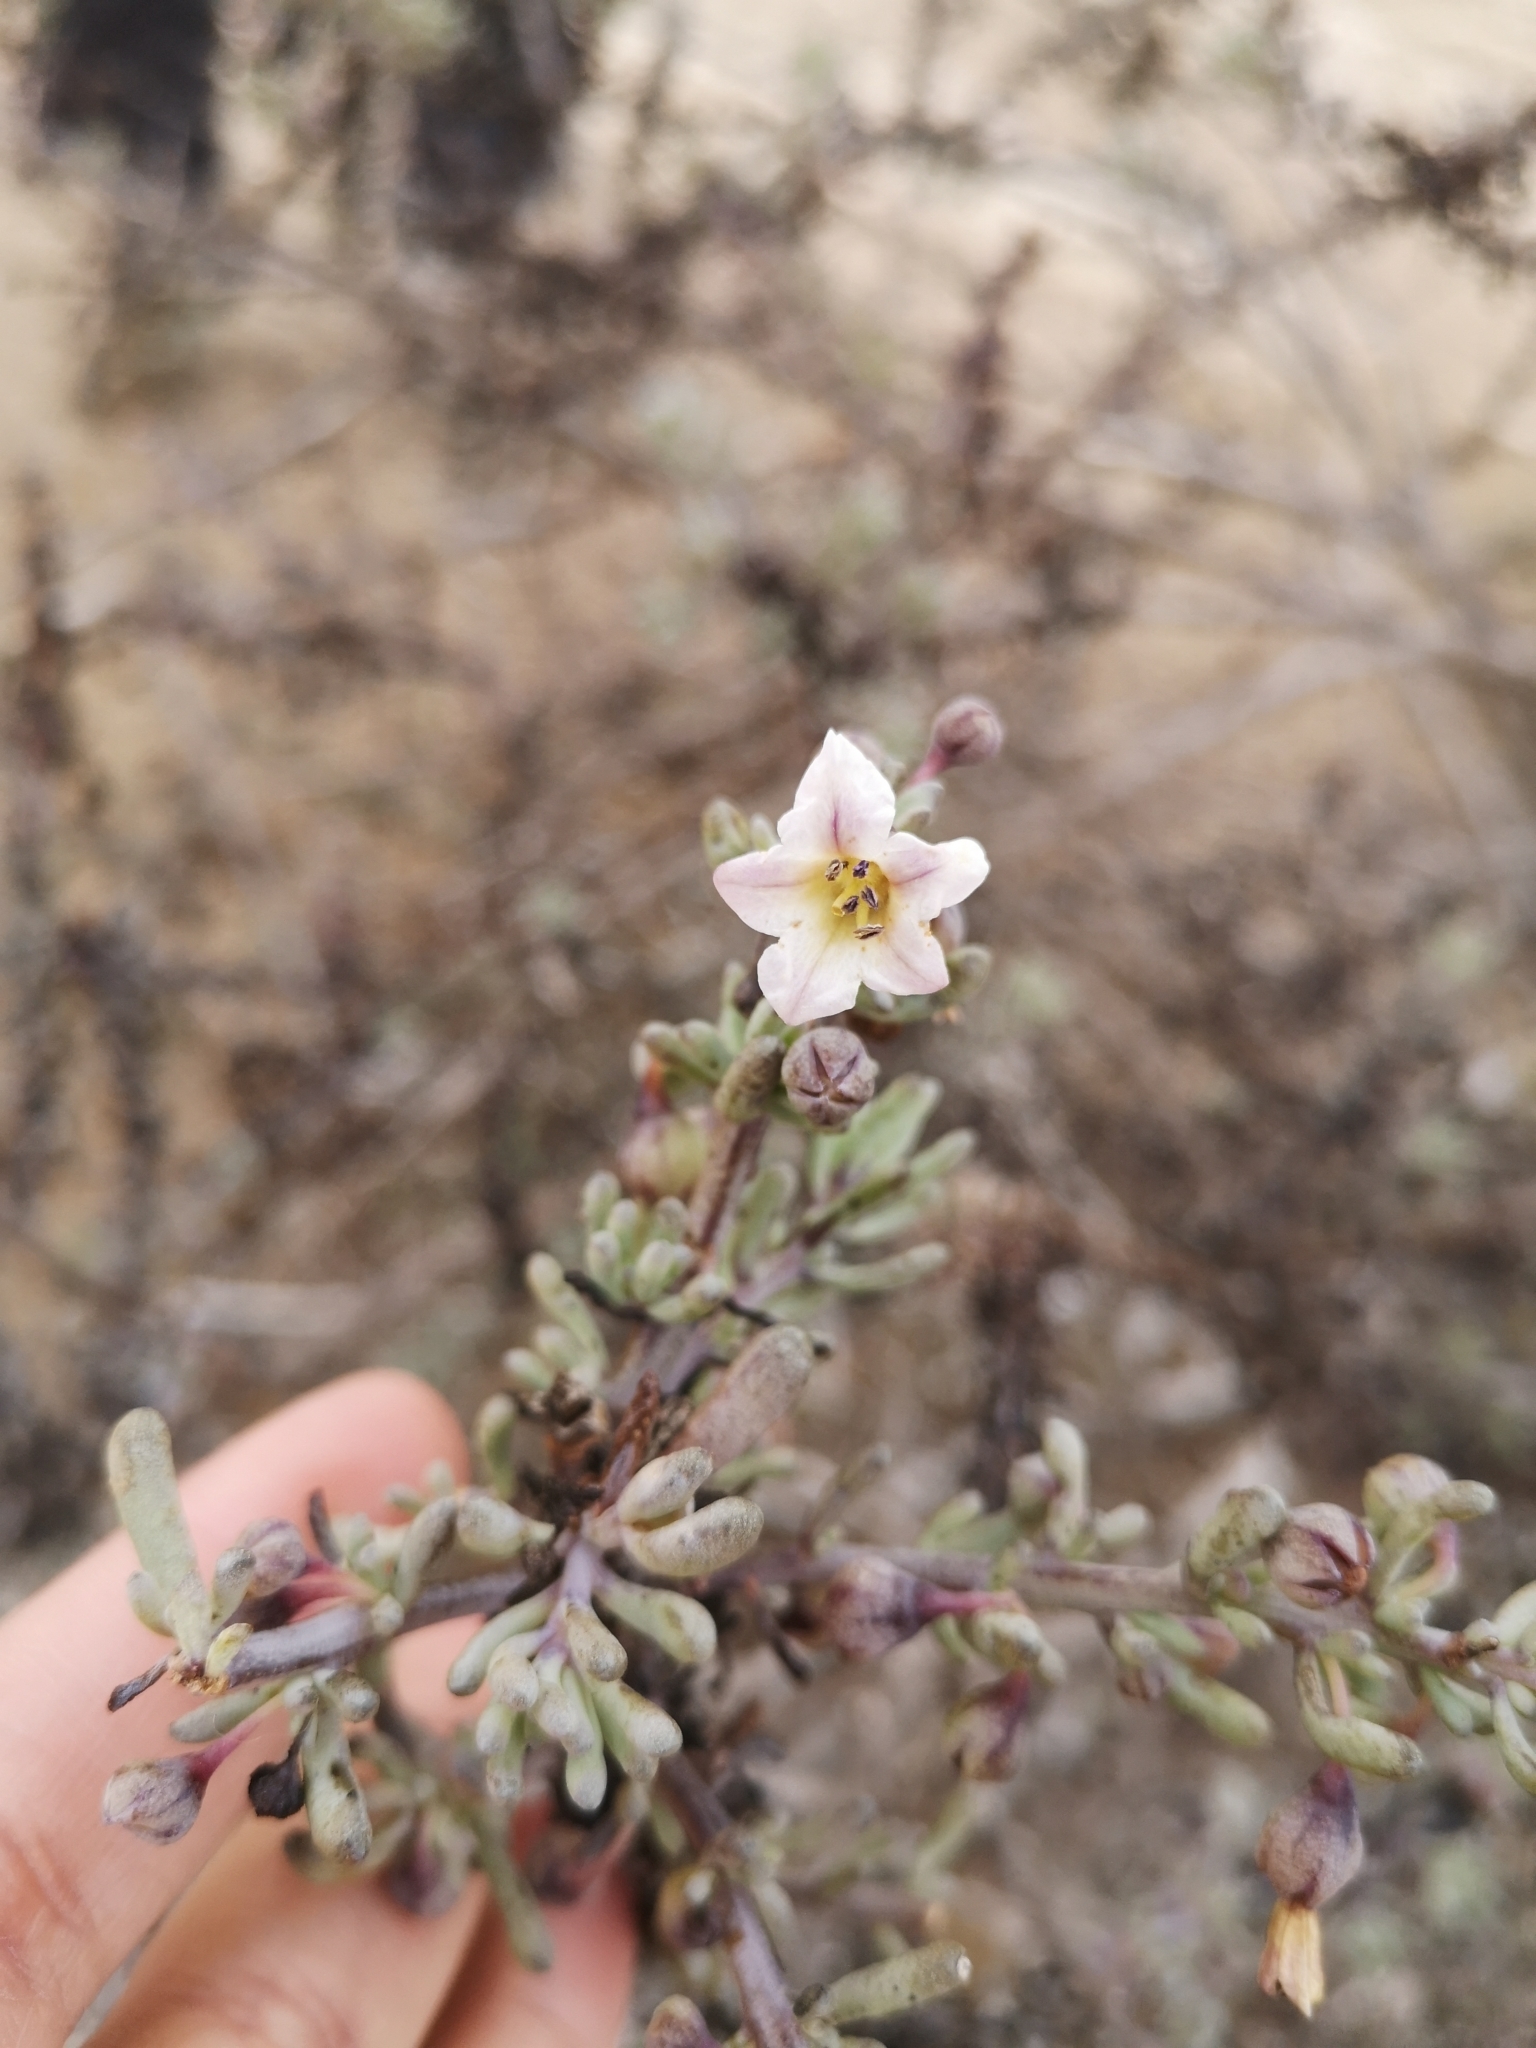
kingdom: Plantae
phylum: Tracheophyta
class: Magnoliopsida
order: Solanales
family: Solanaceae
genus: Nolana
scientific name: Nolana glauca
